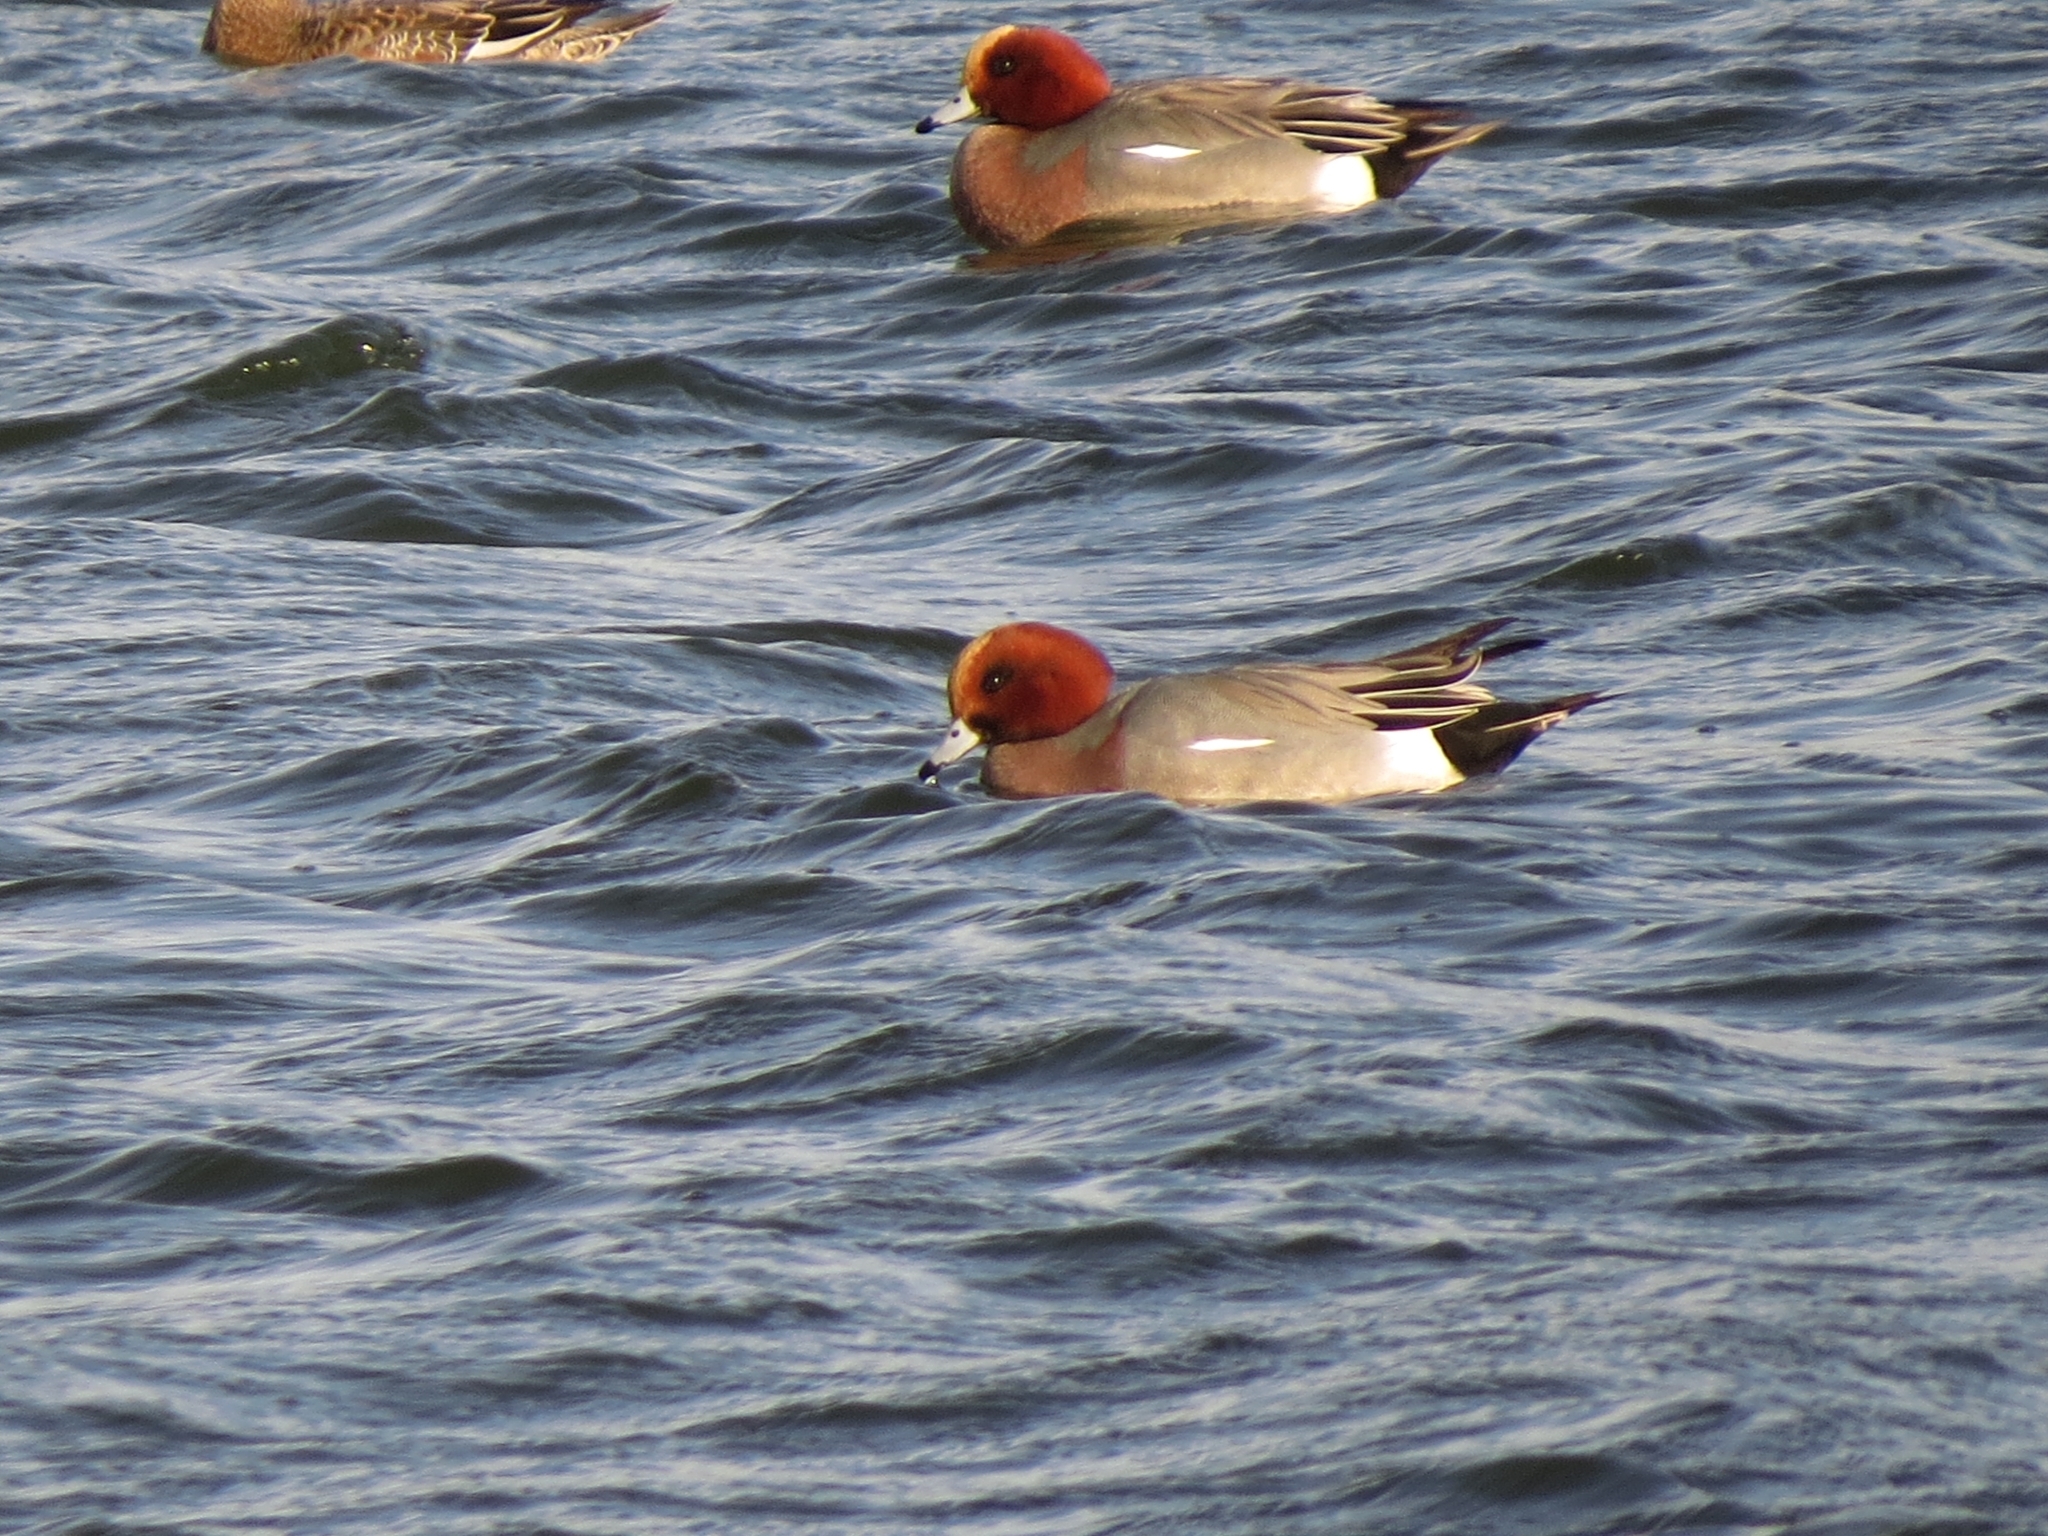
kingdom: Animalia
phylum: Chordata
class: Aves
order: Anseriformes
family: Anatidae
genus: Mareca
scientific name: Mareca penelope
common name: Eurasian wigeon
